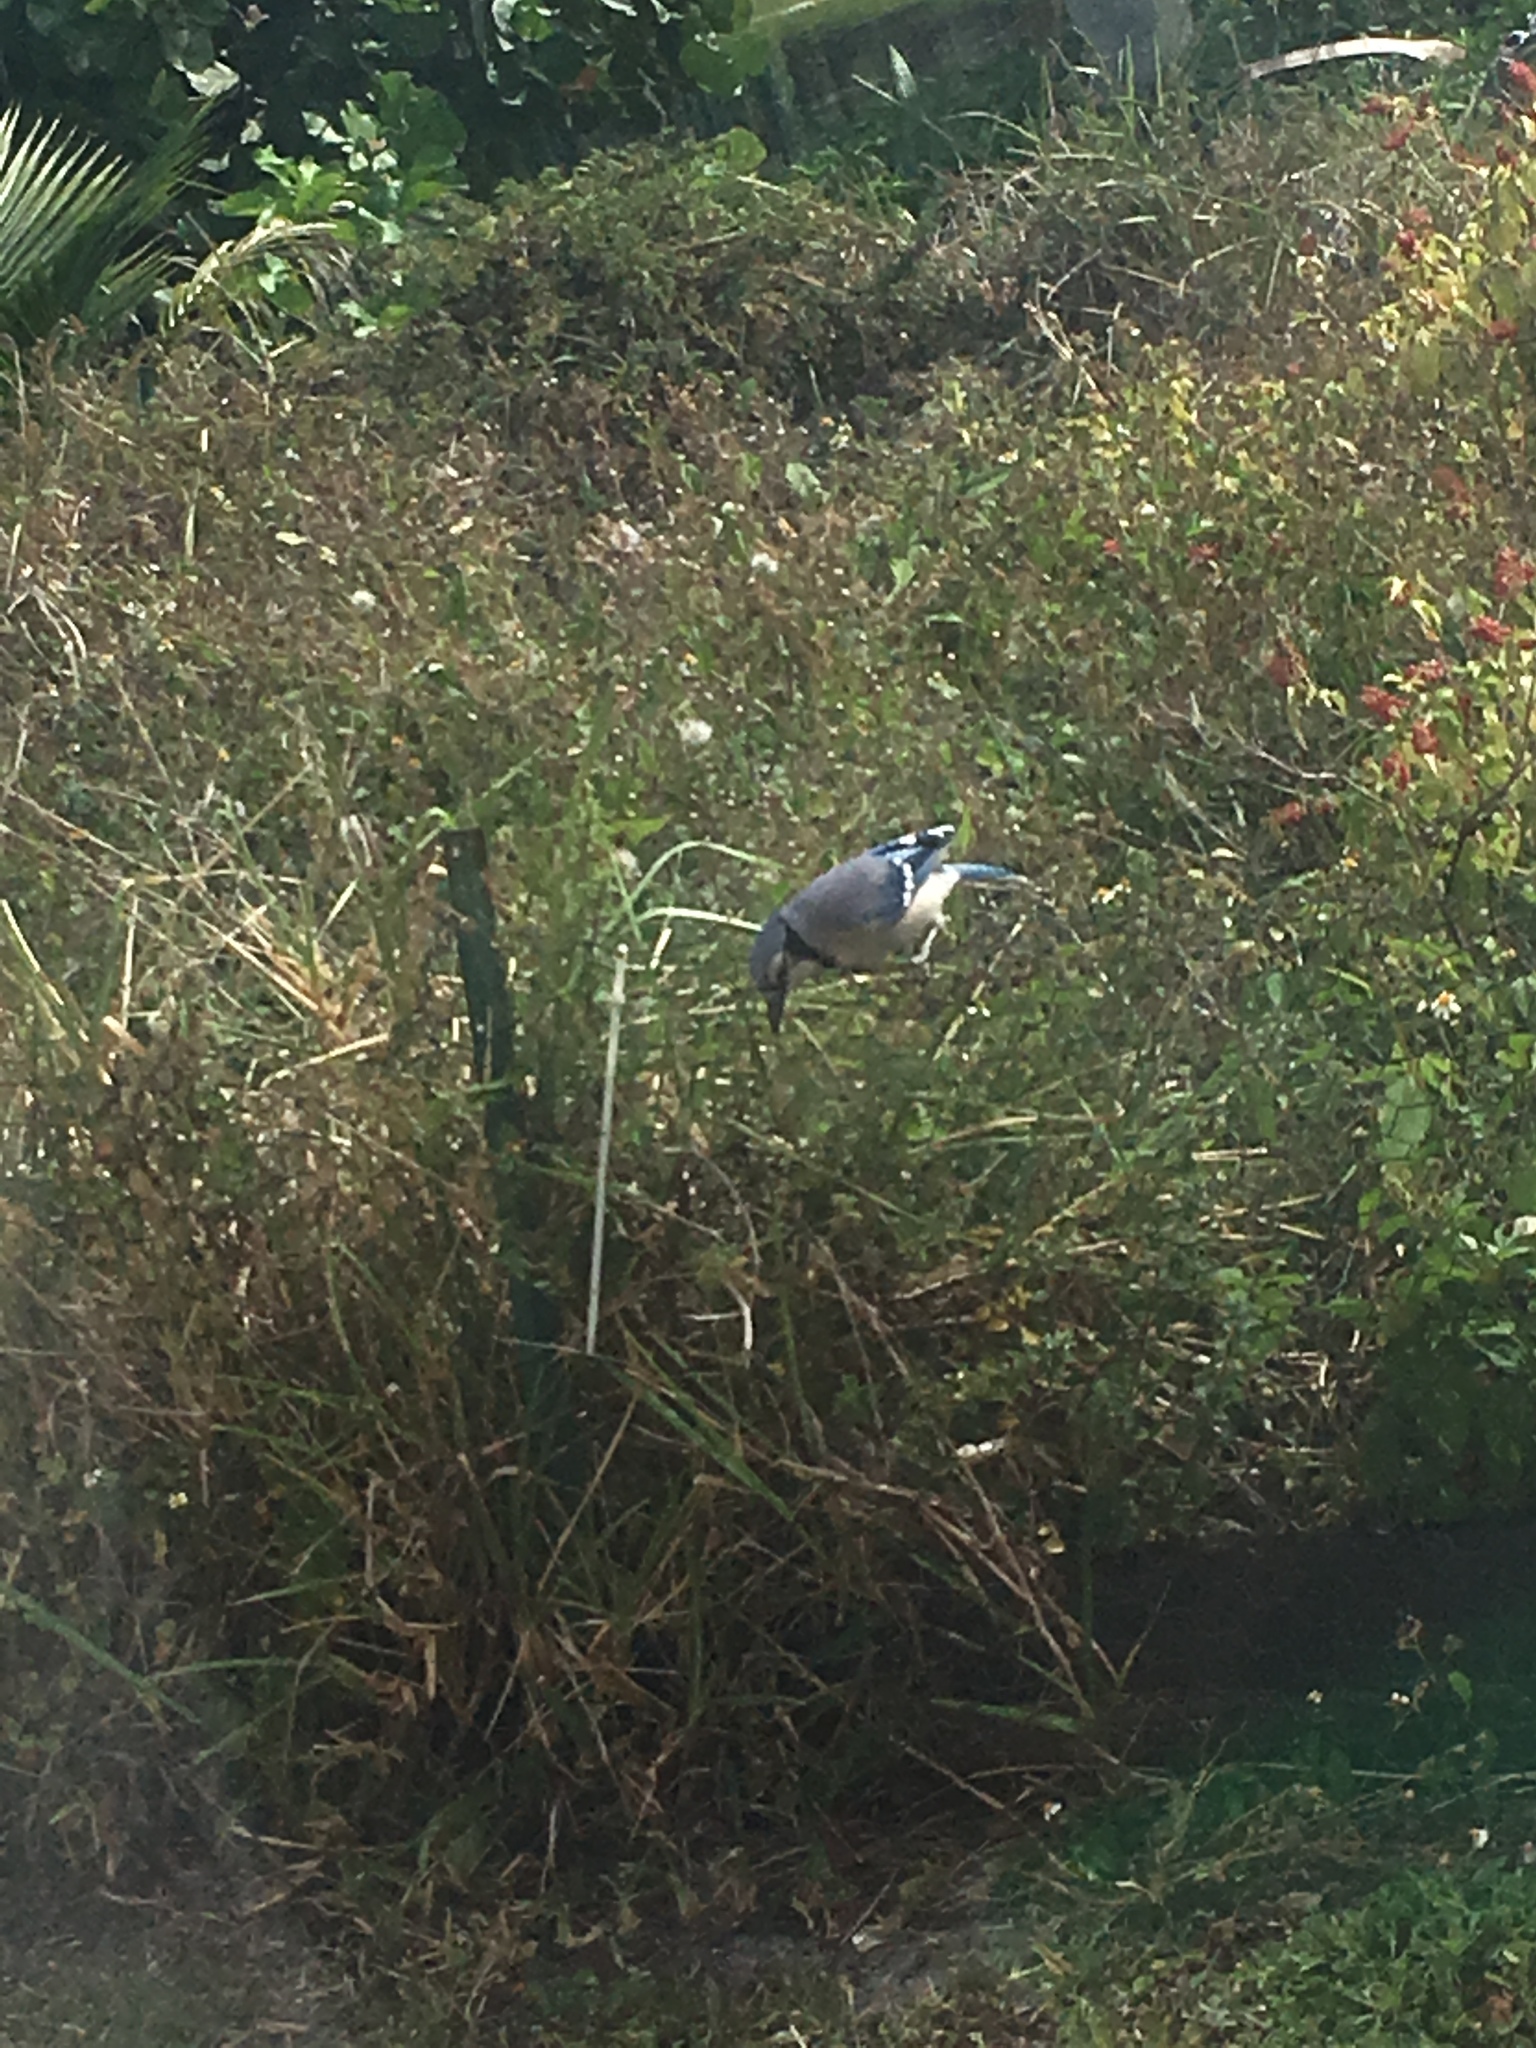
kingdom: Animalia
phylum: Chordata
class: Aves
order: Passeriformes
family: Corvidae
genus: Cyanocitta
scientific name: Cyanocitta cristata
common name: Blue jay
